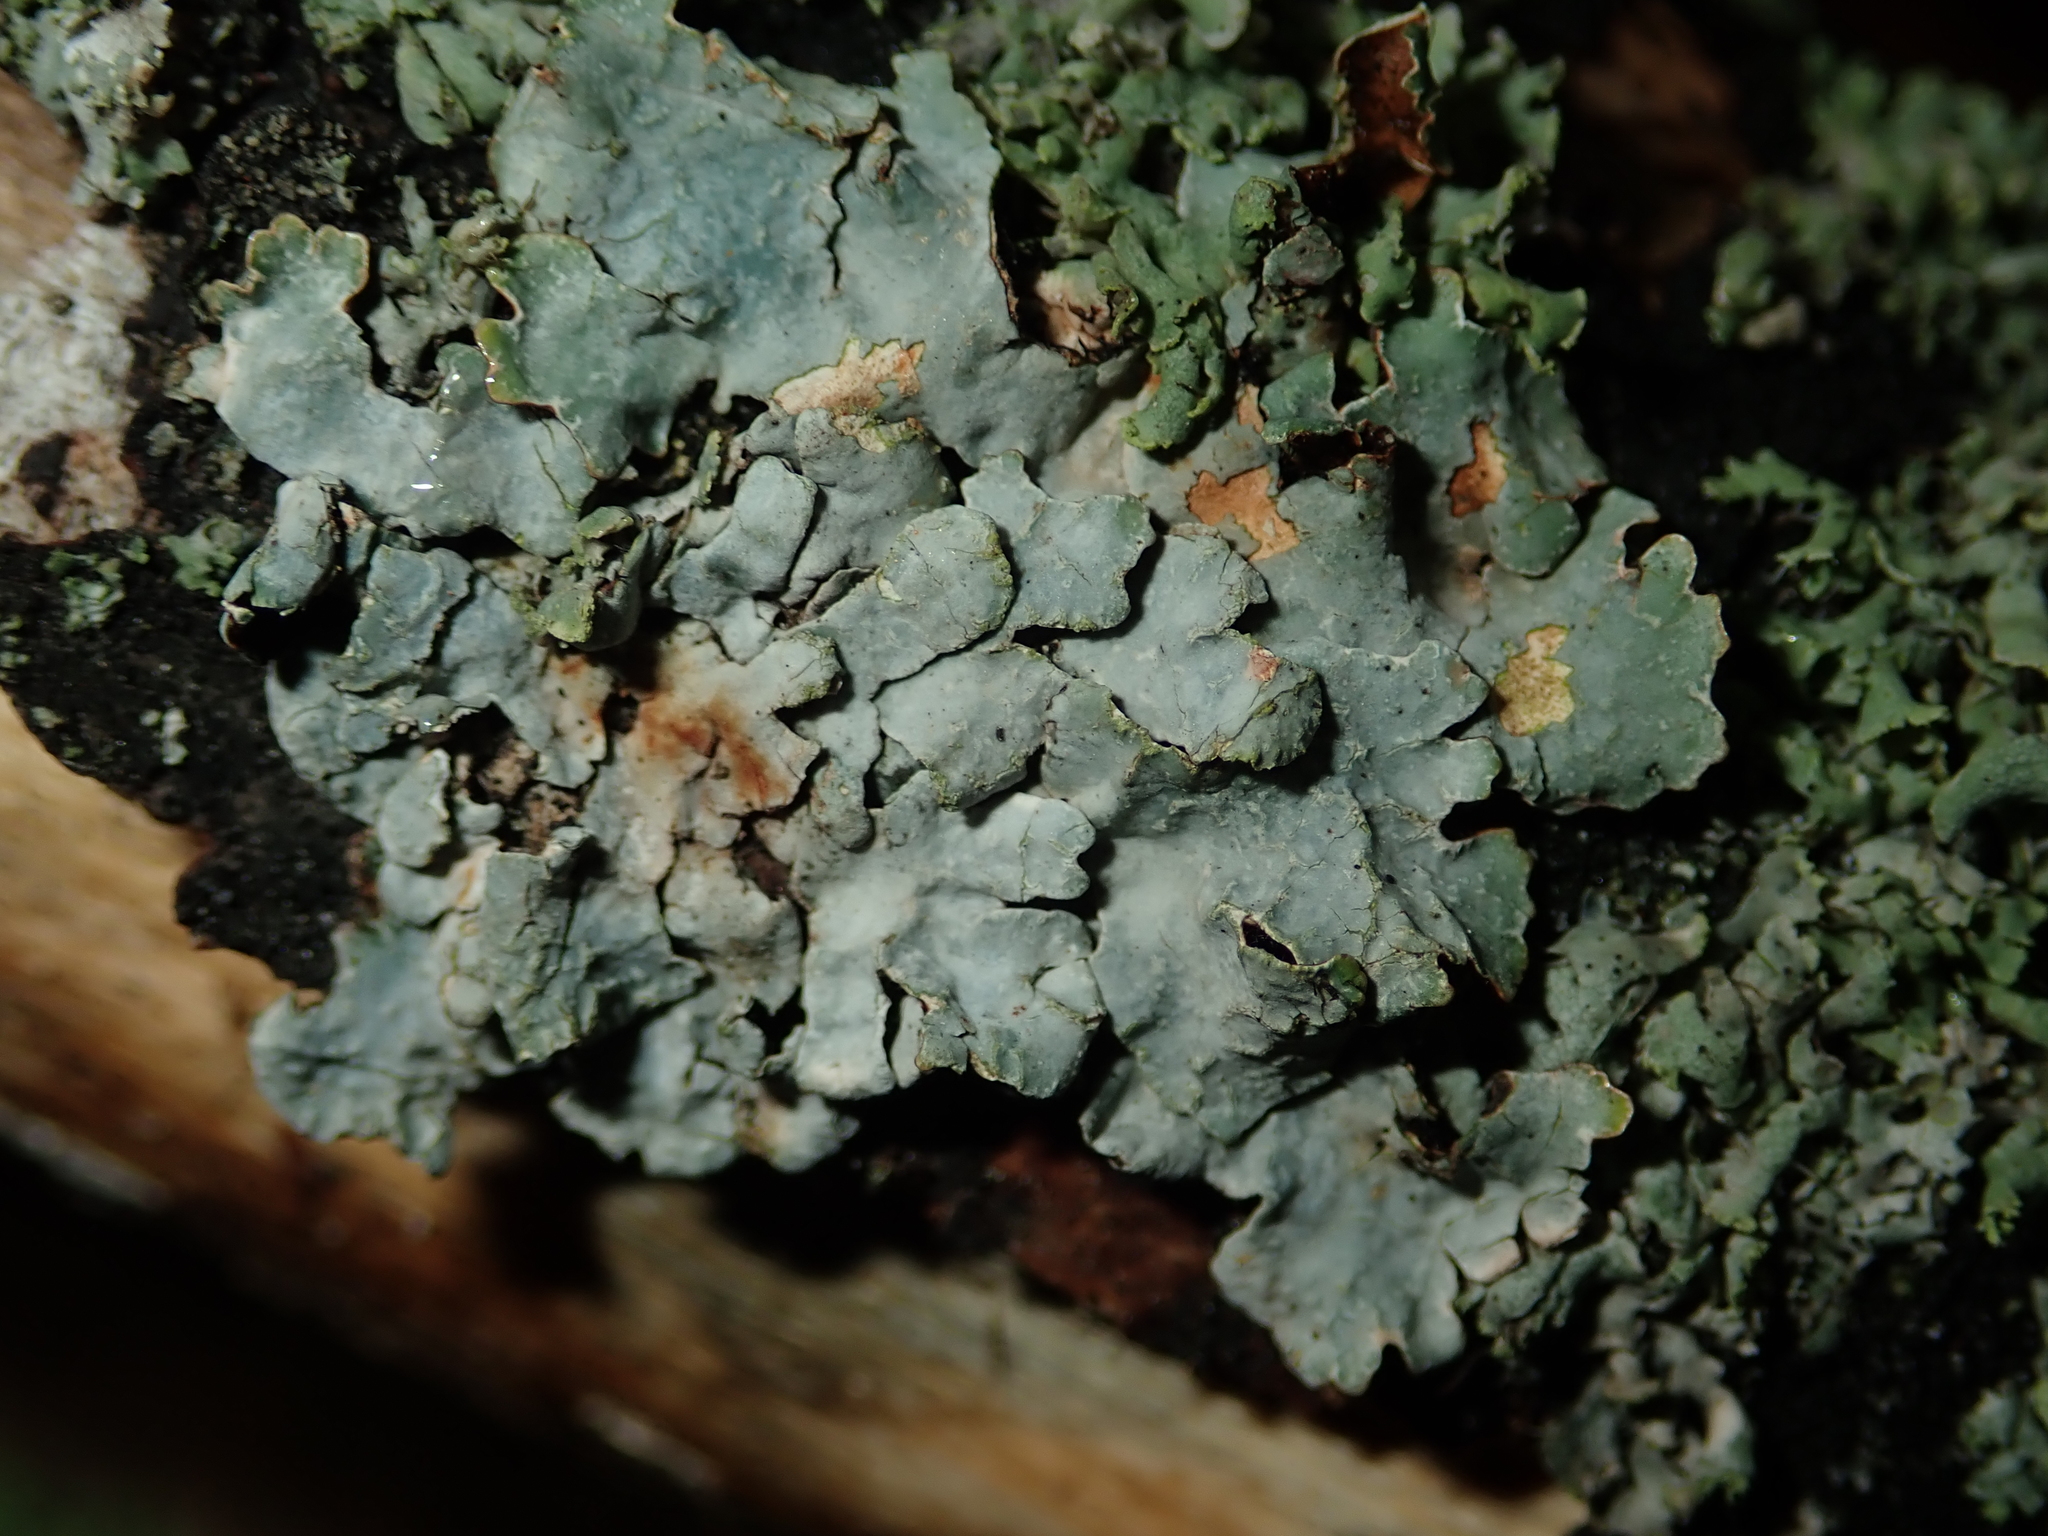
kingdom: Fungi
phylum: Ascomycota
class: Lecanoromycetes
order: Lecanorales
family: Parmeliaceae
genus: Parmelia
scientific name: Parmelia sulcata
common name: Netted shield lichen
